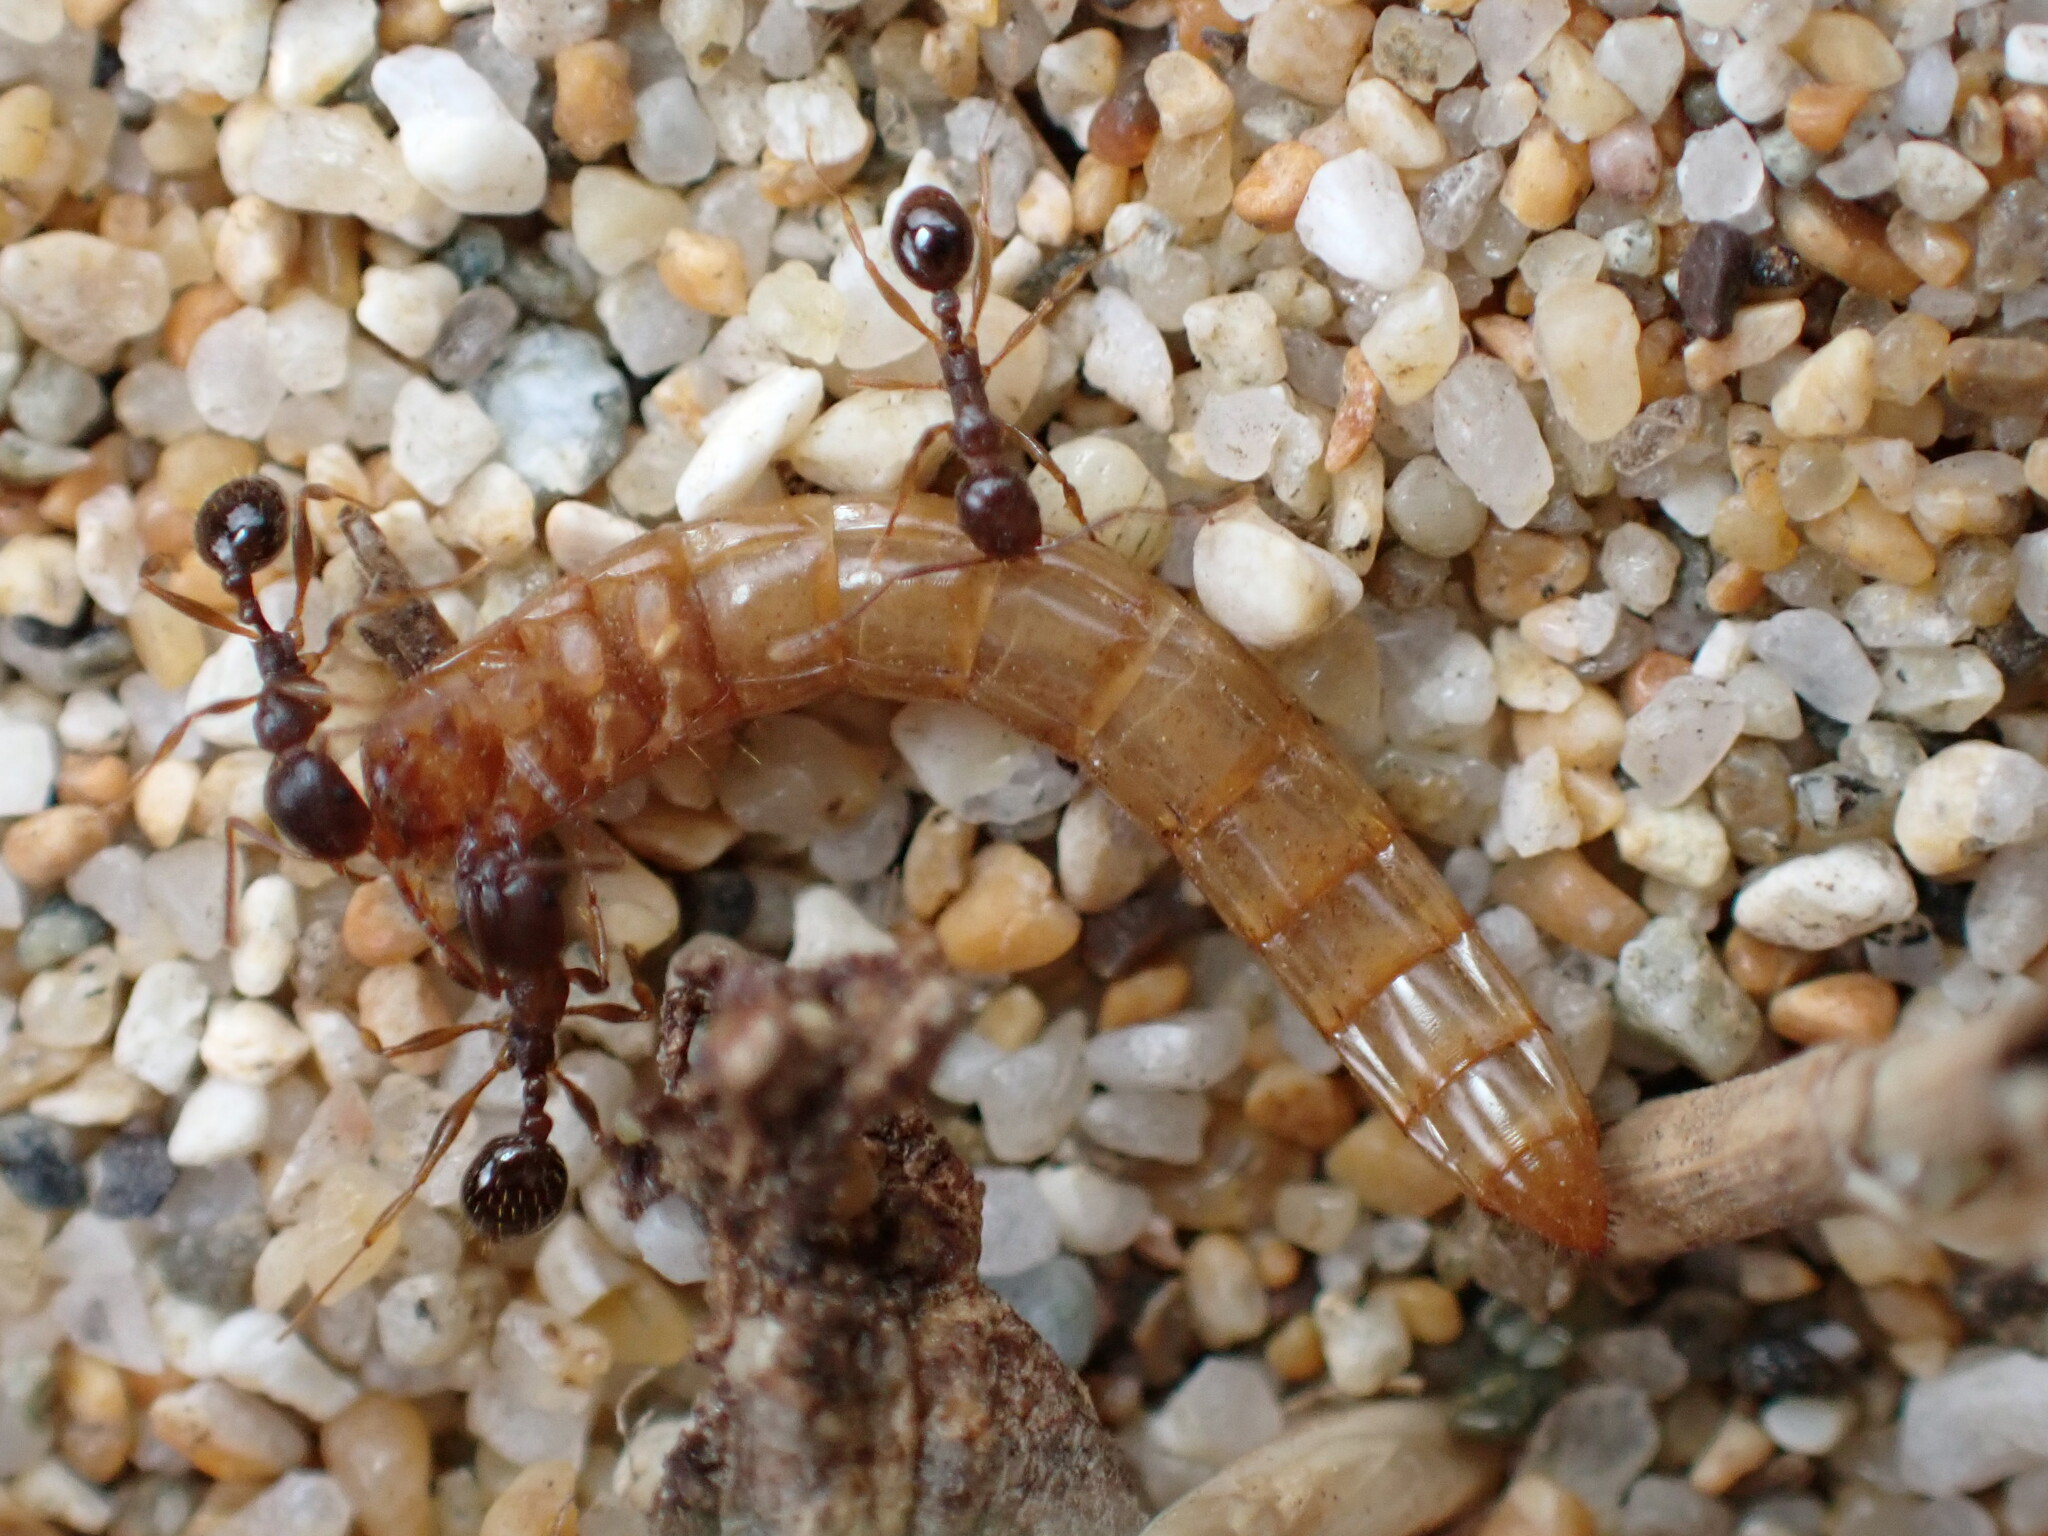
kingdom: Animalia
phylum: Arthropoda
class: Insecta
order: Hymenoptera
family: Formicidae
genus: Aphaenogaster
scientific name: Aphaenogaster occidentalis
